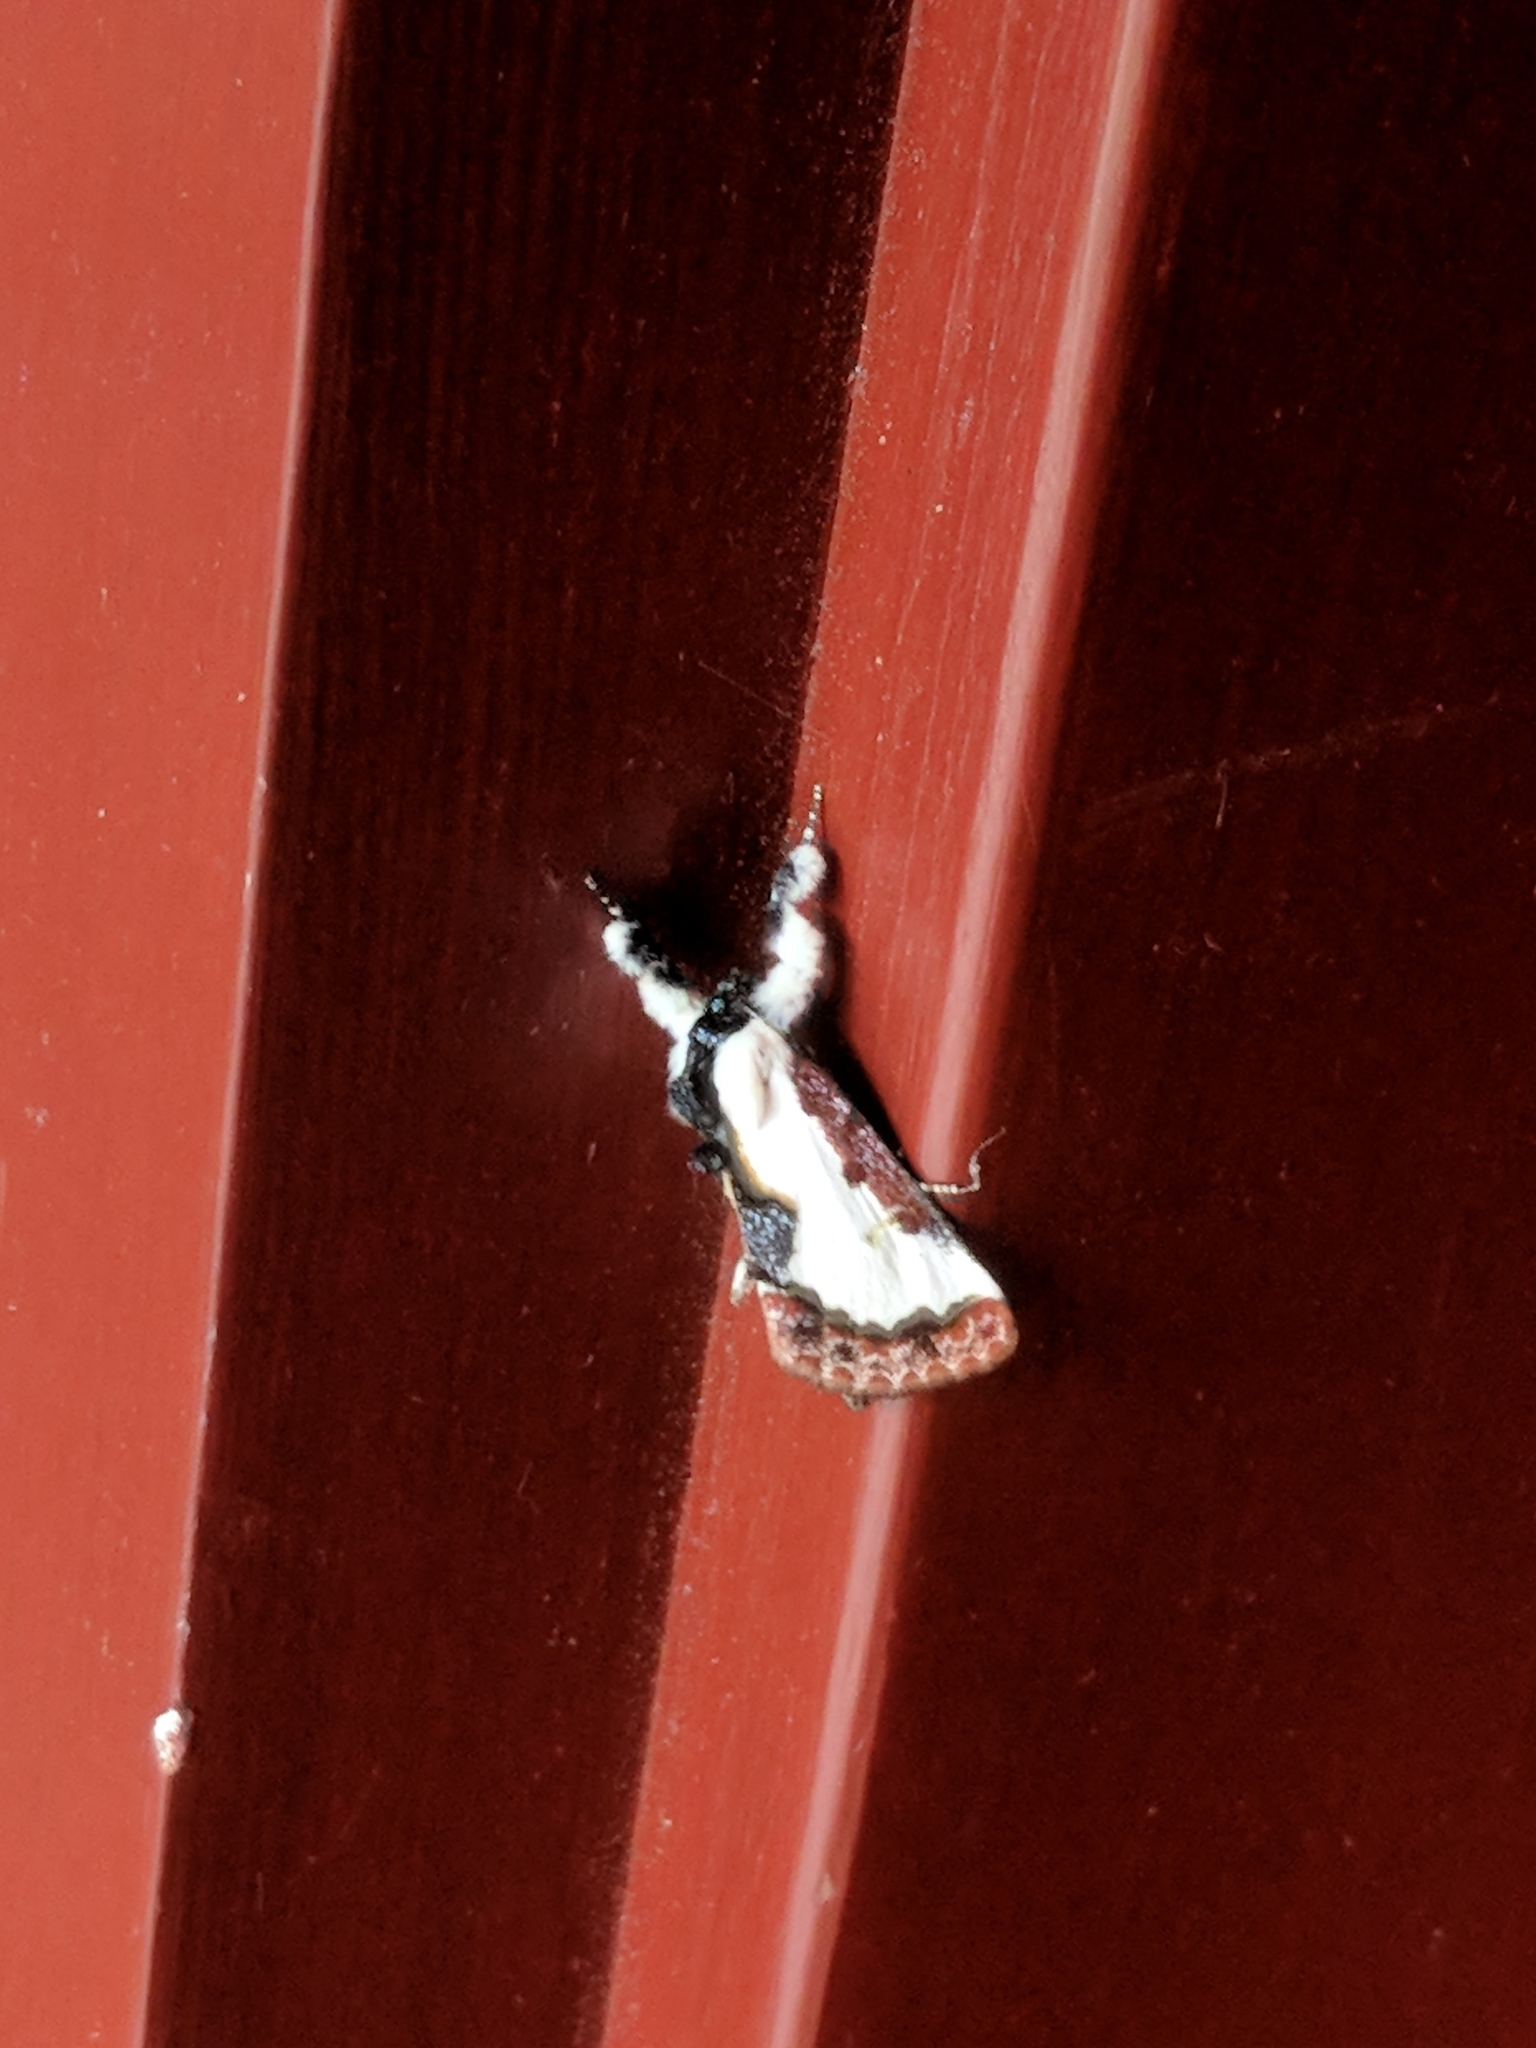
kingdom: Animalia
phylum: Arthropoda
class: Insecta
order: Lepidoptera
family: Noctuidae
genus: Eudryas
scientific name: Eudryas unio
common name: Pearly wood-nymph
